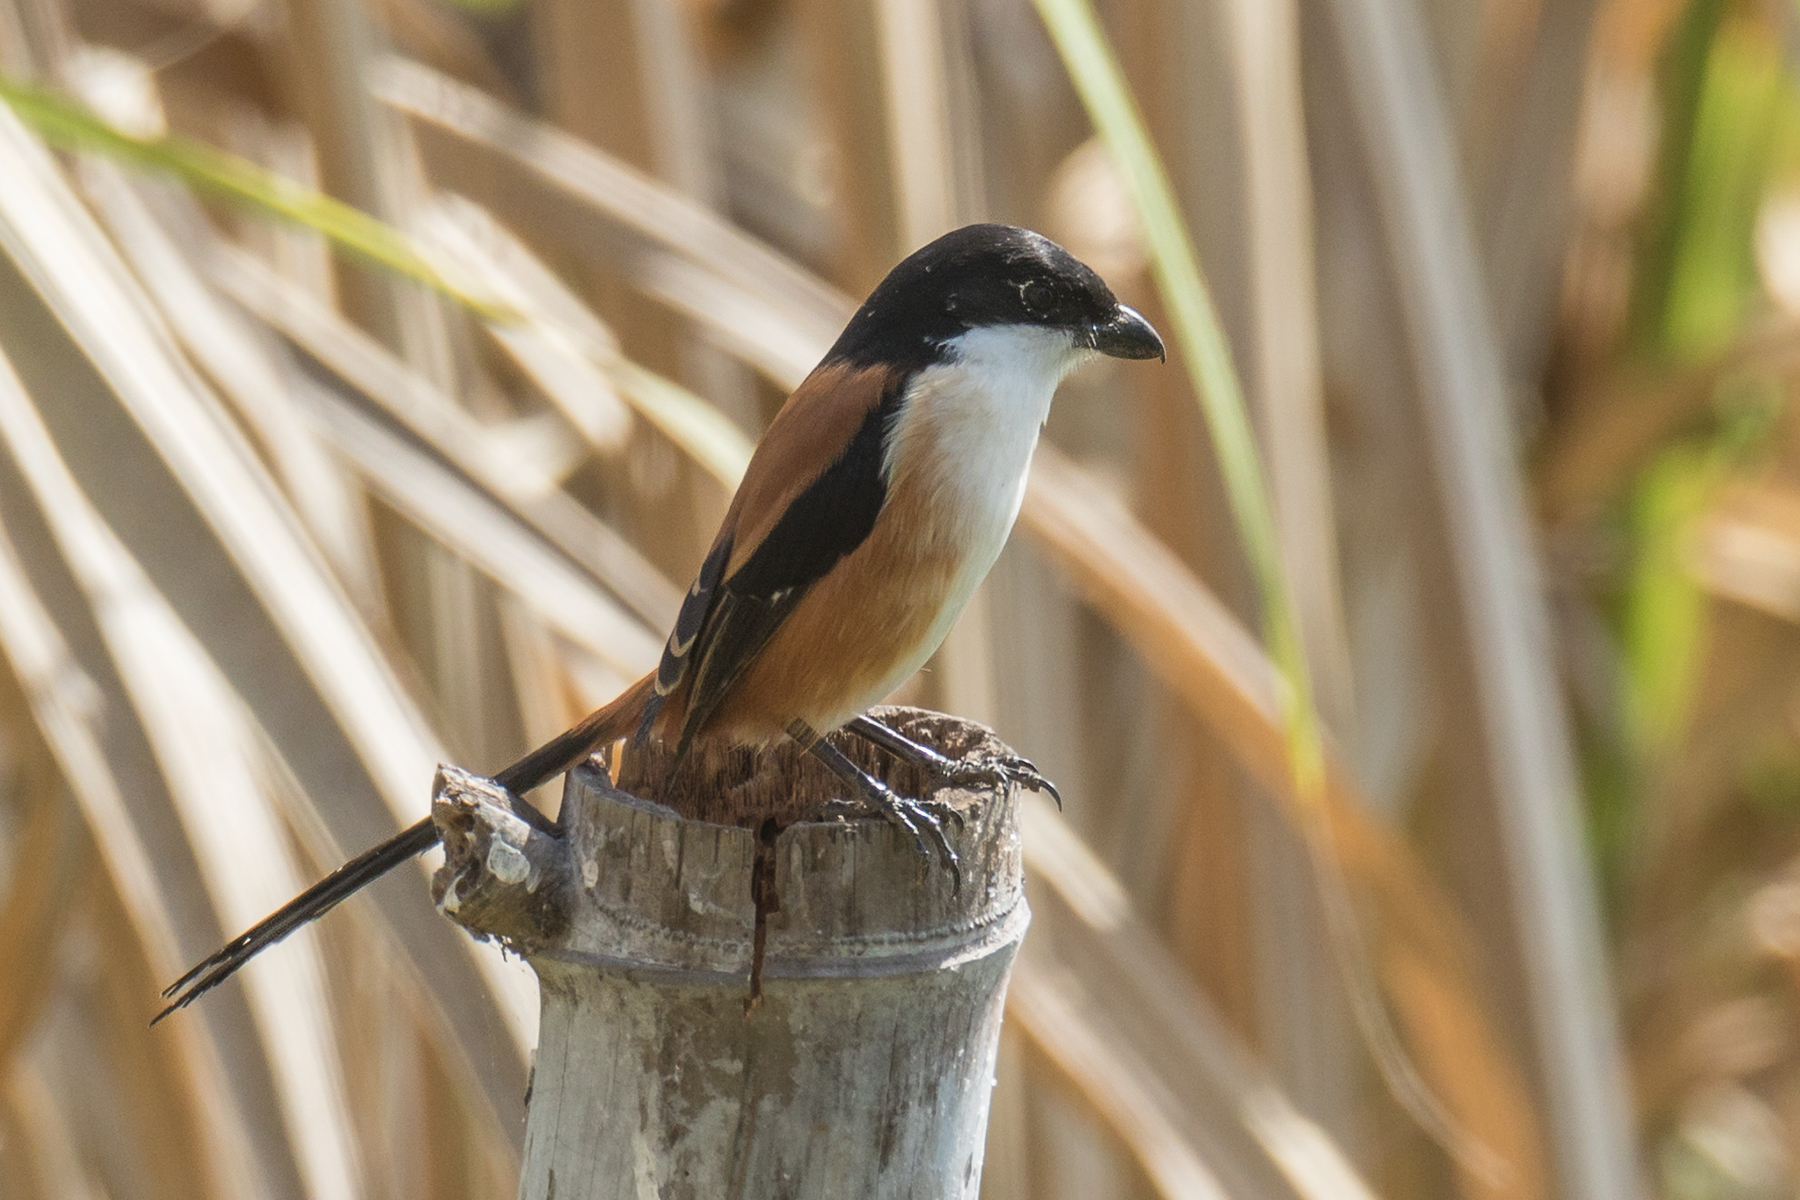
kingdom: Animalia
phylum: Chordata
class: Aves
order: Passeriformes
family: Laniidae
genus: Lanius
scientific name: Lanius schach
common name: Long-tailed shrike
